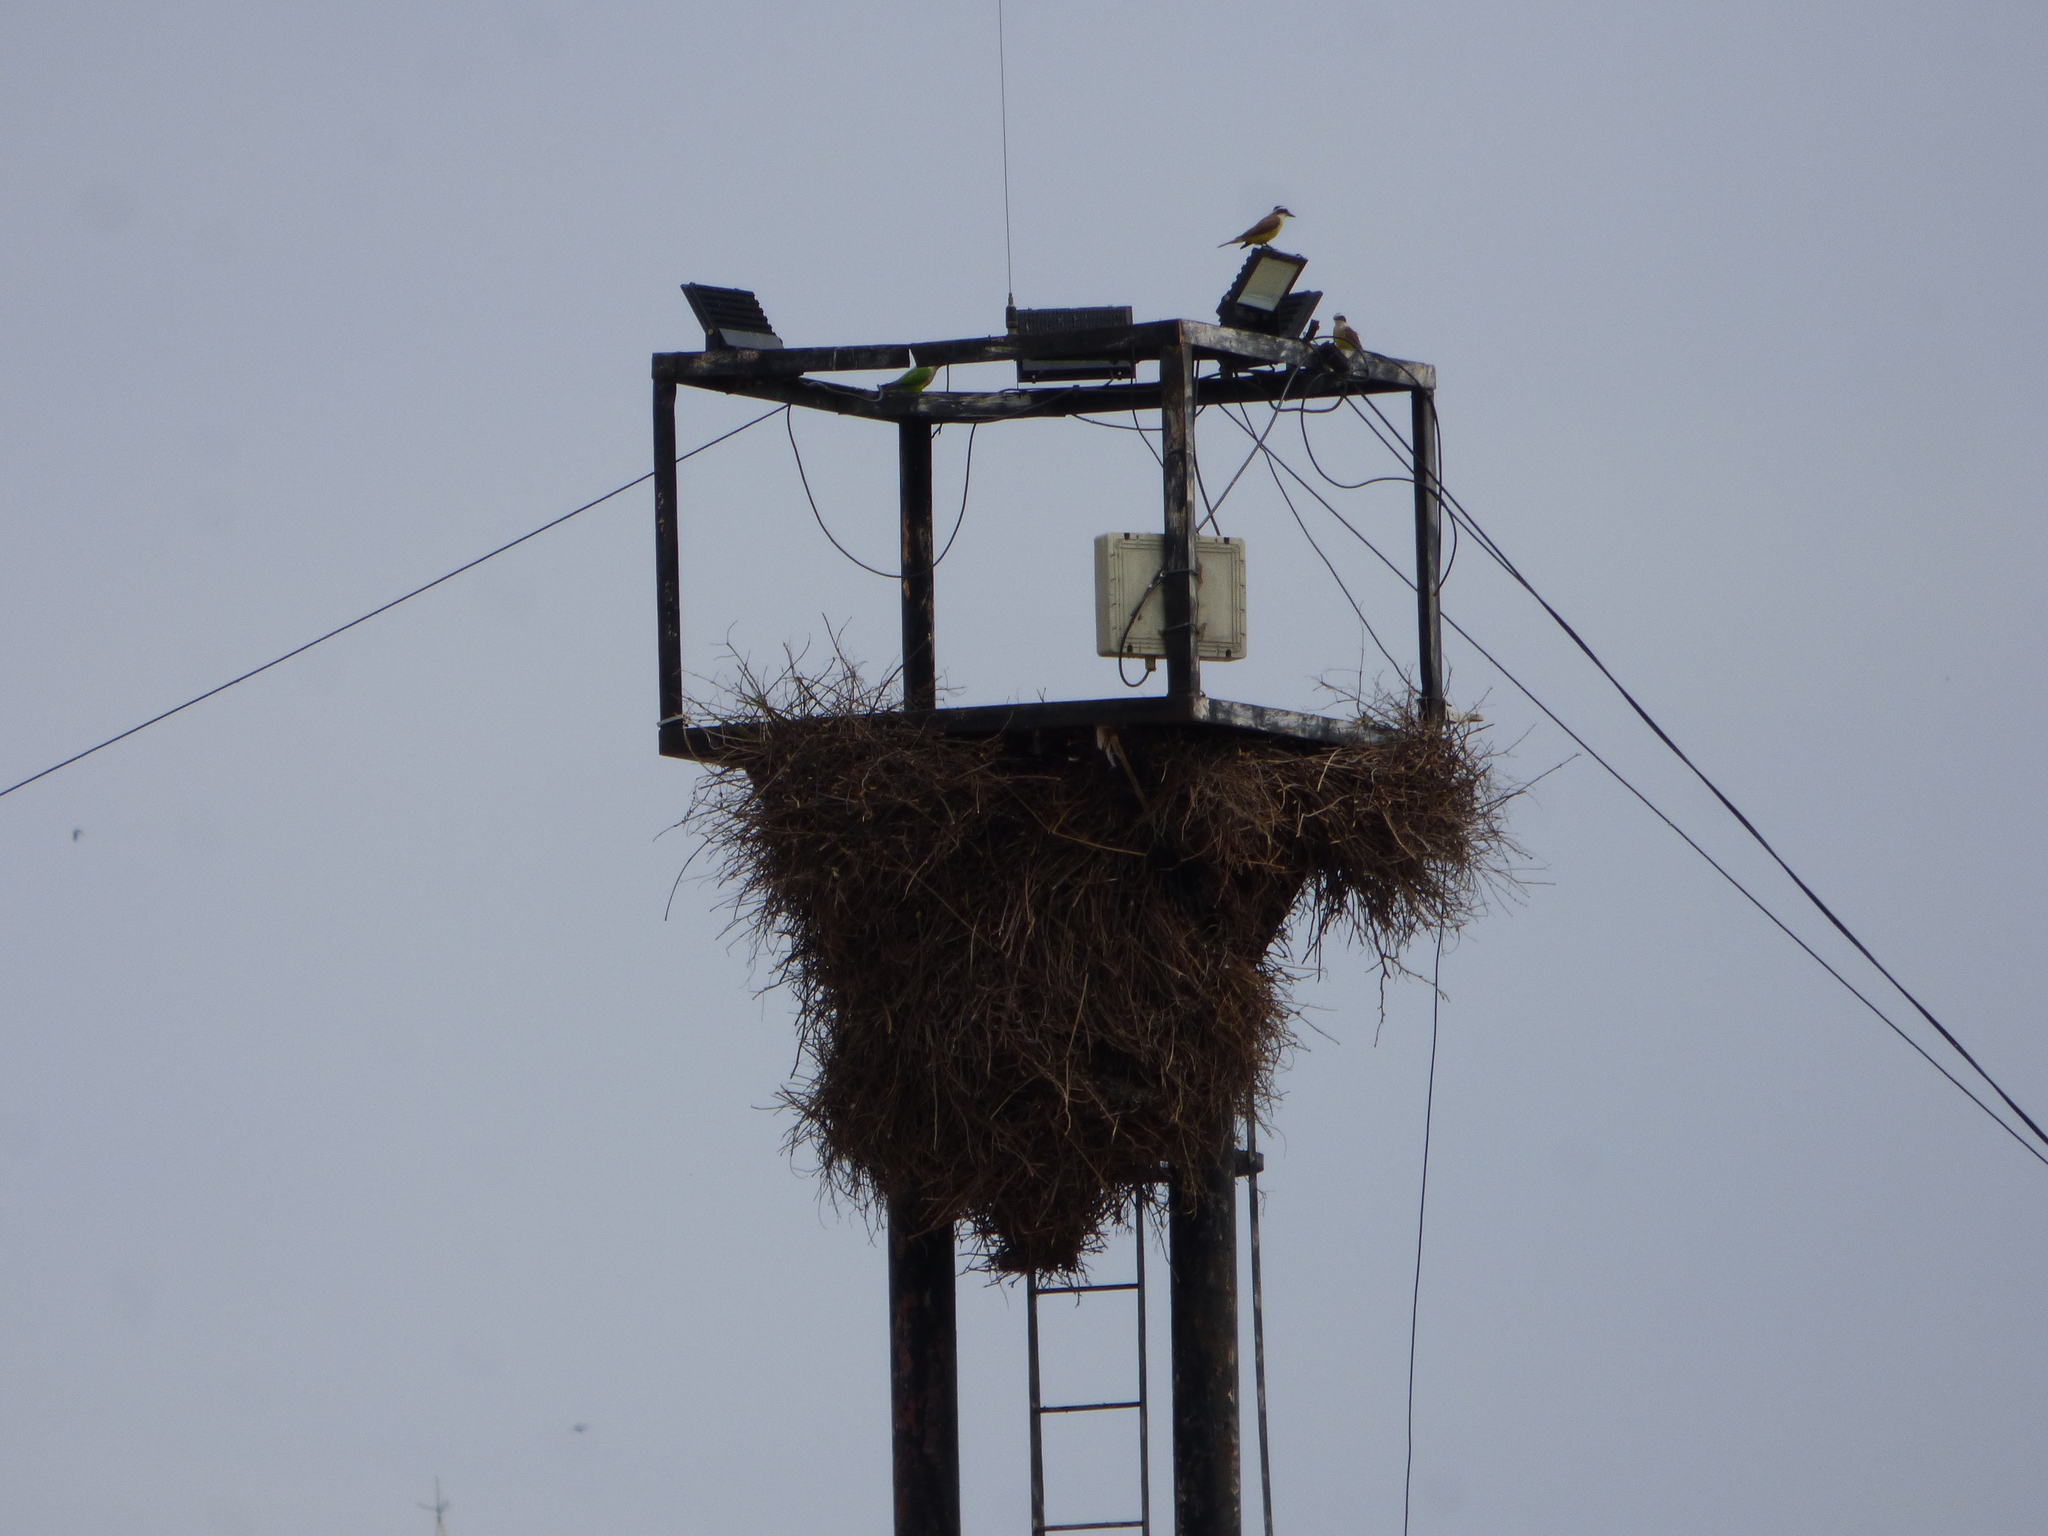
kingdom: Animalia
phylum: Chordata
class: Aves
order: Passeriformes
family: Tyrannidae
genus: Pitangus
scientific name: Pitangus sulphuratus
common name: Great kiskadee
